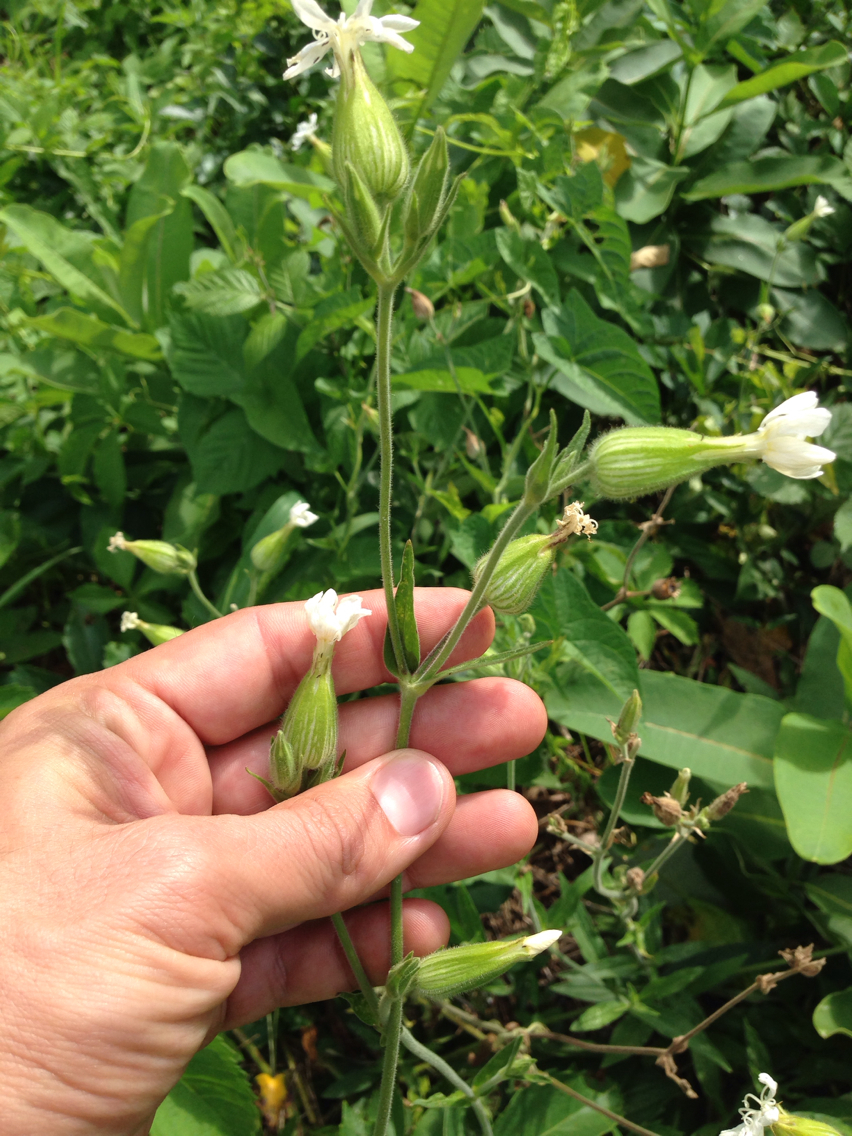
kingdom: Plantae
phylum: Tracheophyta
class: Magnoliopsida
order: Caryophyllales
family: Caryophyllaceae
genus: Silene
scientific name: Silene latifolia
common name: White campion
